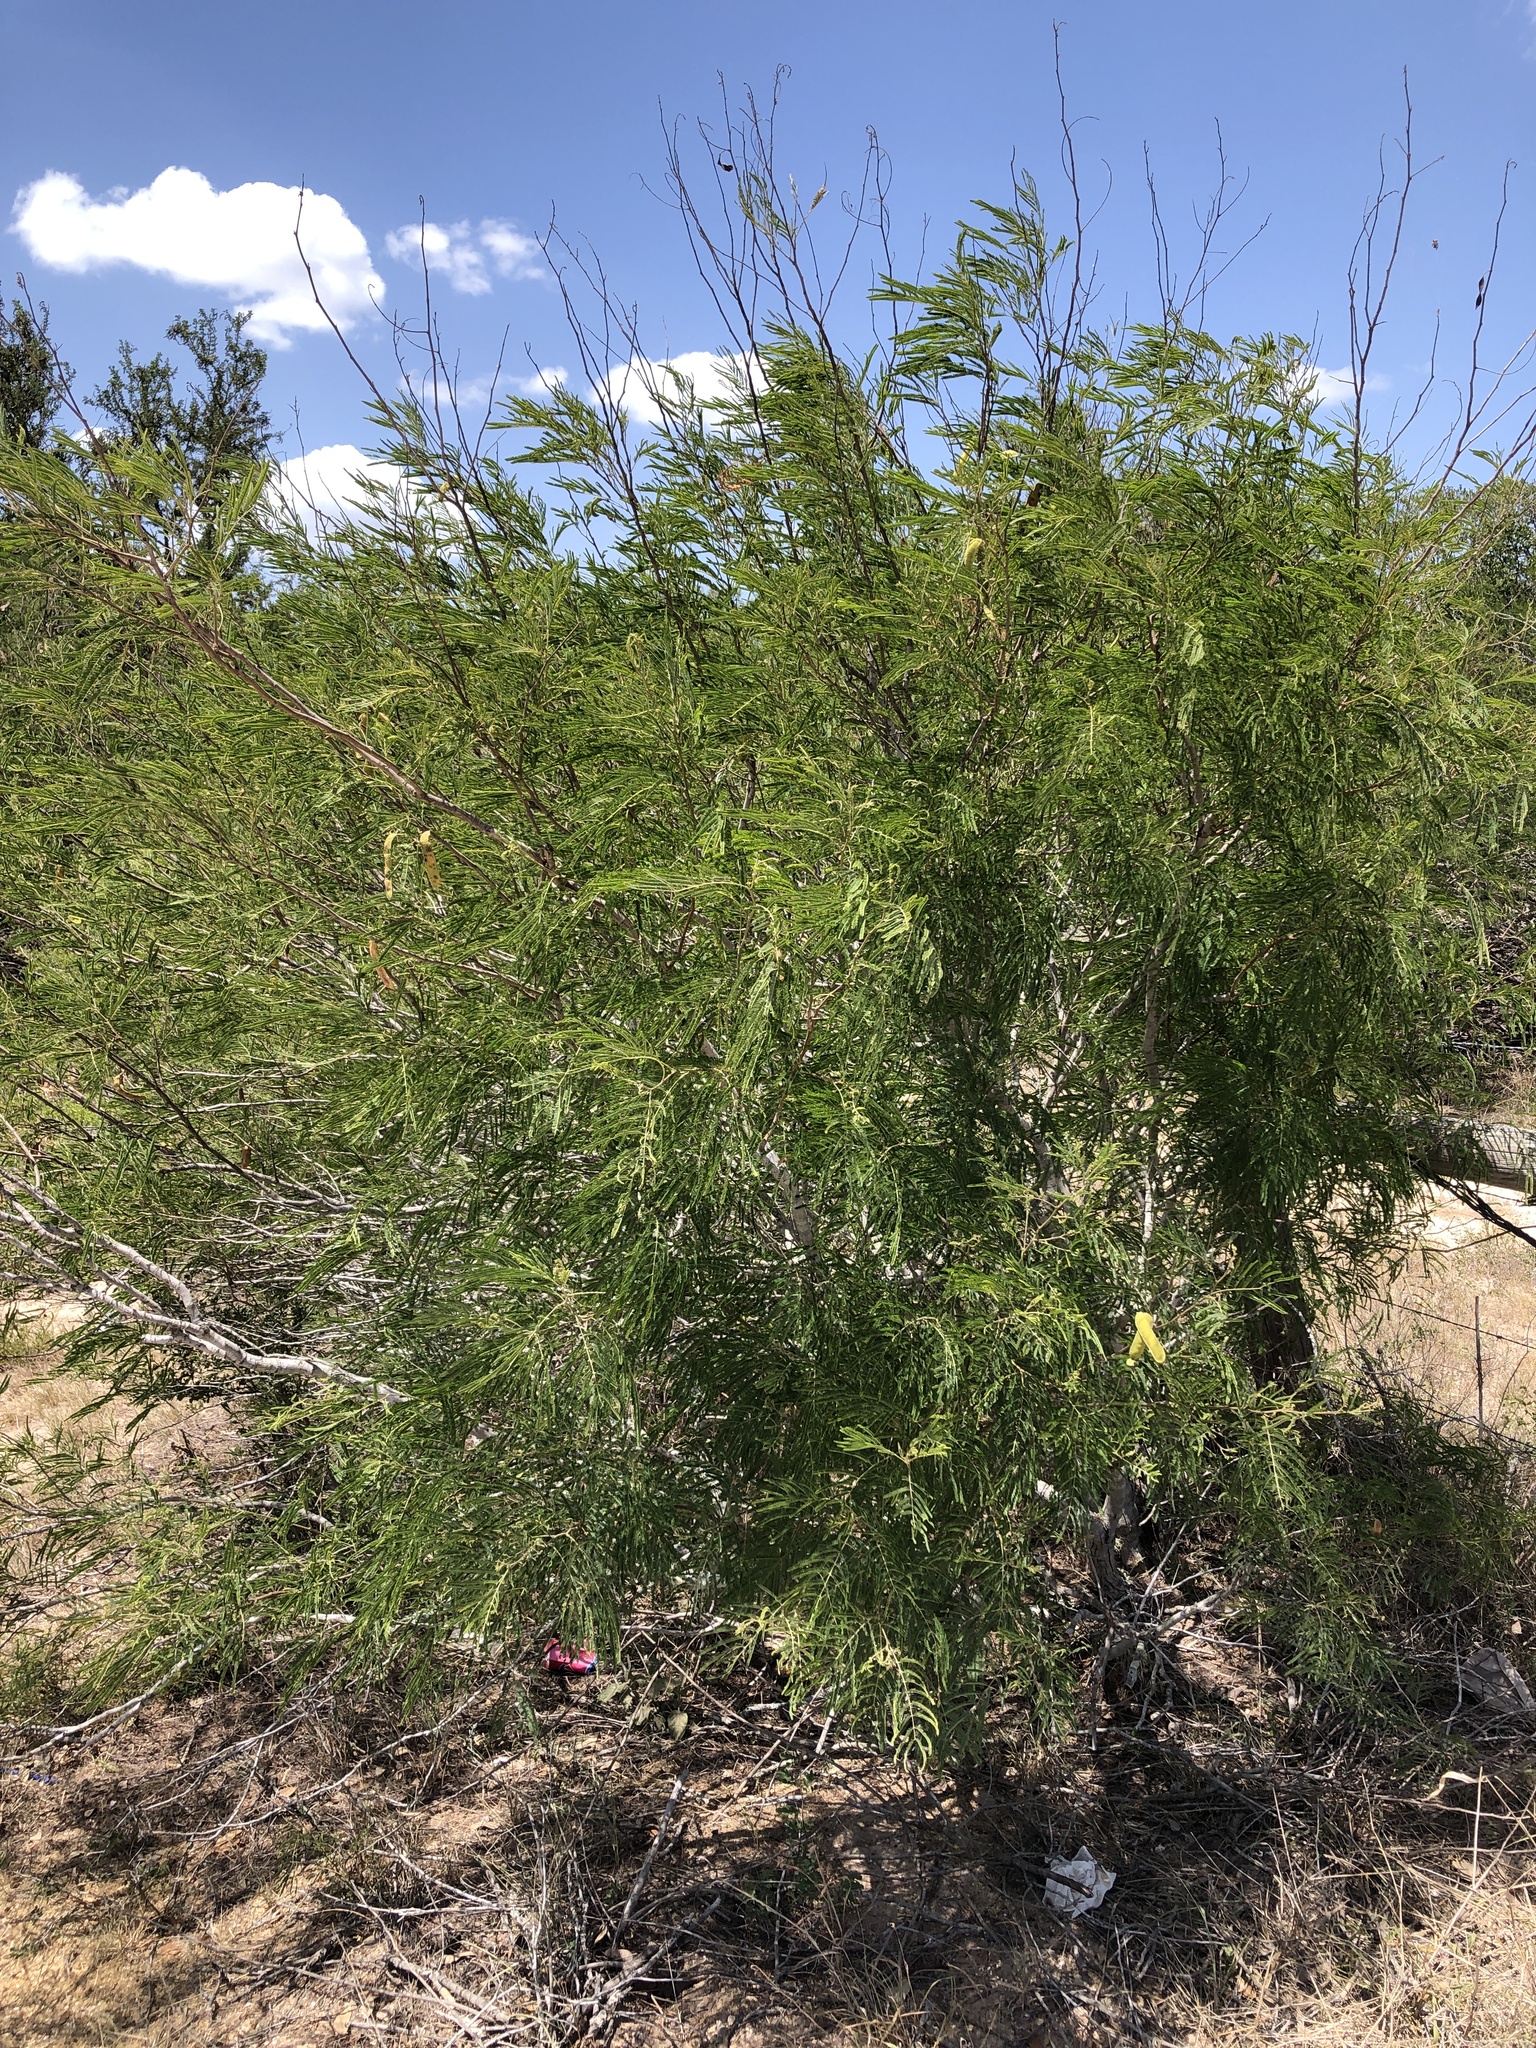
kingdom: Plantae
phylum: Tracheophyta
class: Magnoliopsida
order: Fabales
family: Fabaceae
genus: Senegalia
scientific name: Senegalia berlandieri
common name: Berlandier acacia
